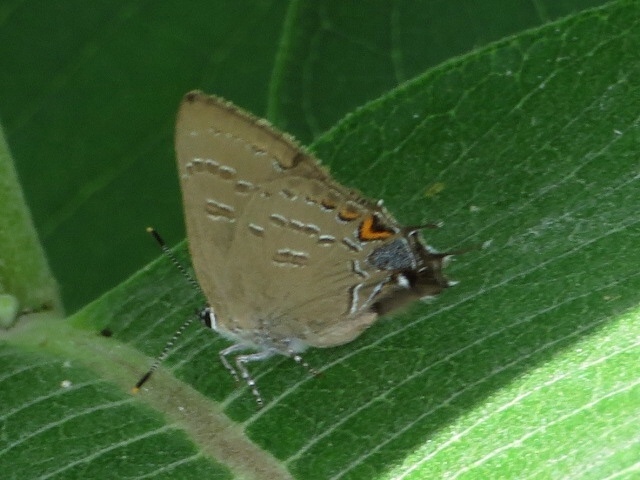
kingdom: Animalia
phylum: Arthropoda
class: Insecta
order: Lepidoptera
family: Lycaenidae
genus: Satyrium
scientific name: Satyrium calanus
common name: Banded hairstreak
